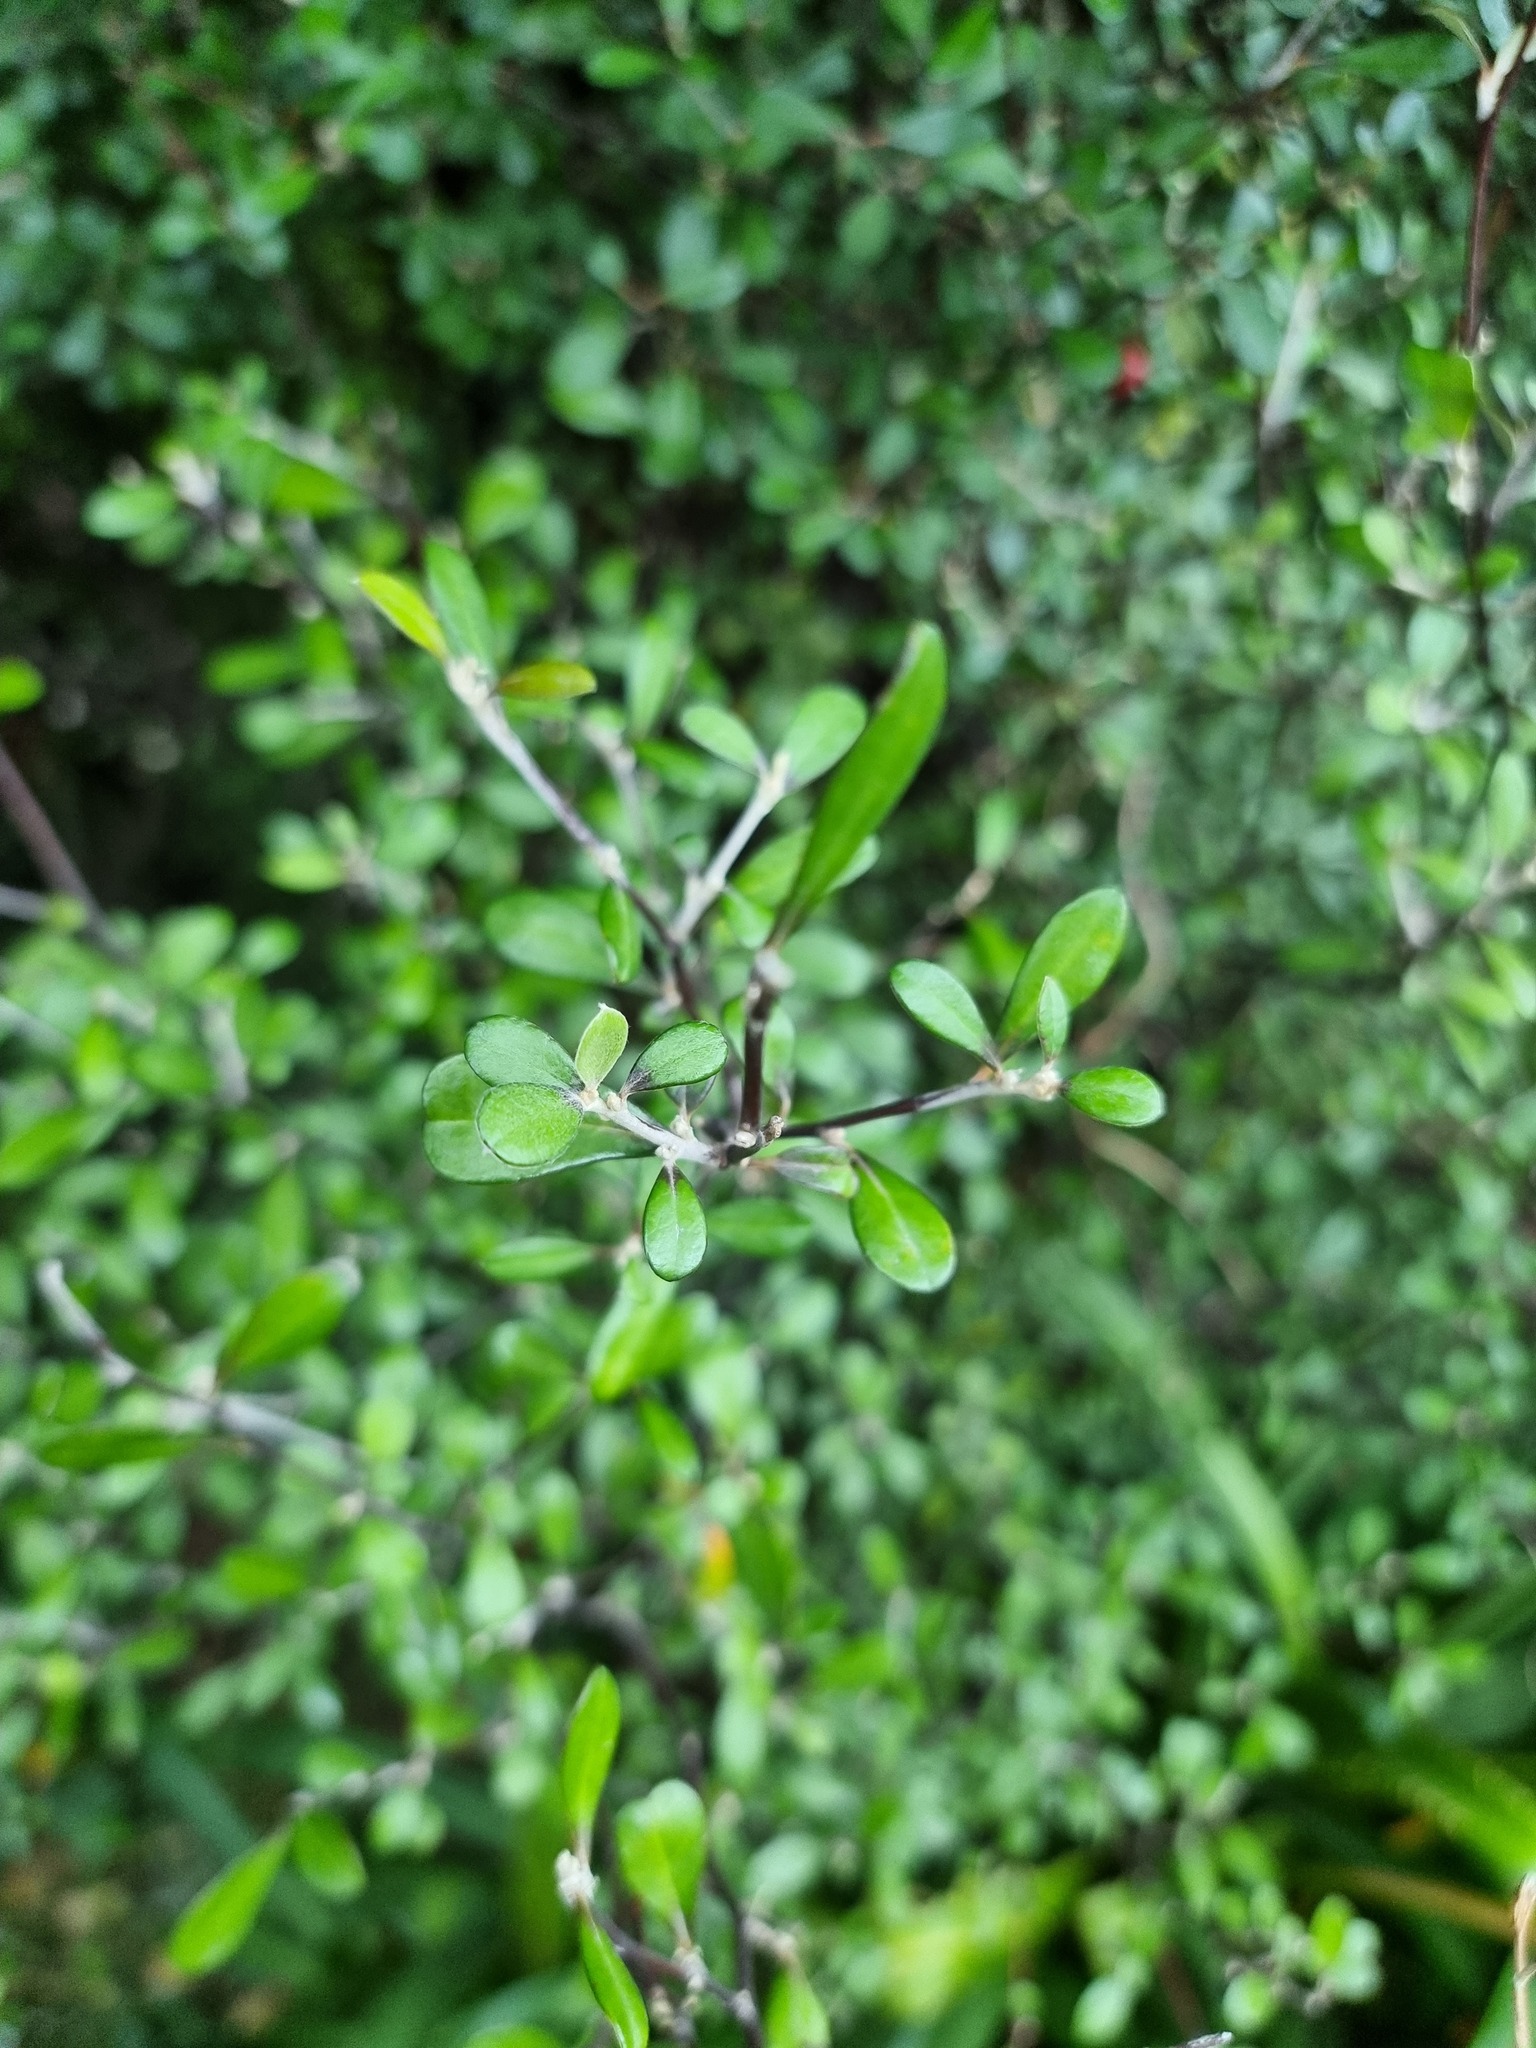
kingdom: Plantae
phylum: Tracheophyta
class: Magnoliopsida
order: Asterales
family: Argophyllaceae
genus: Corokia
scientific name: Corokia virgata
